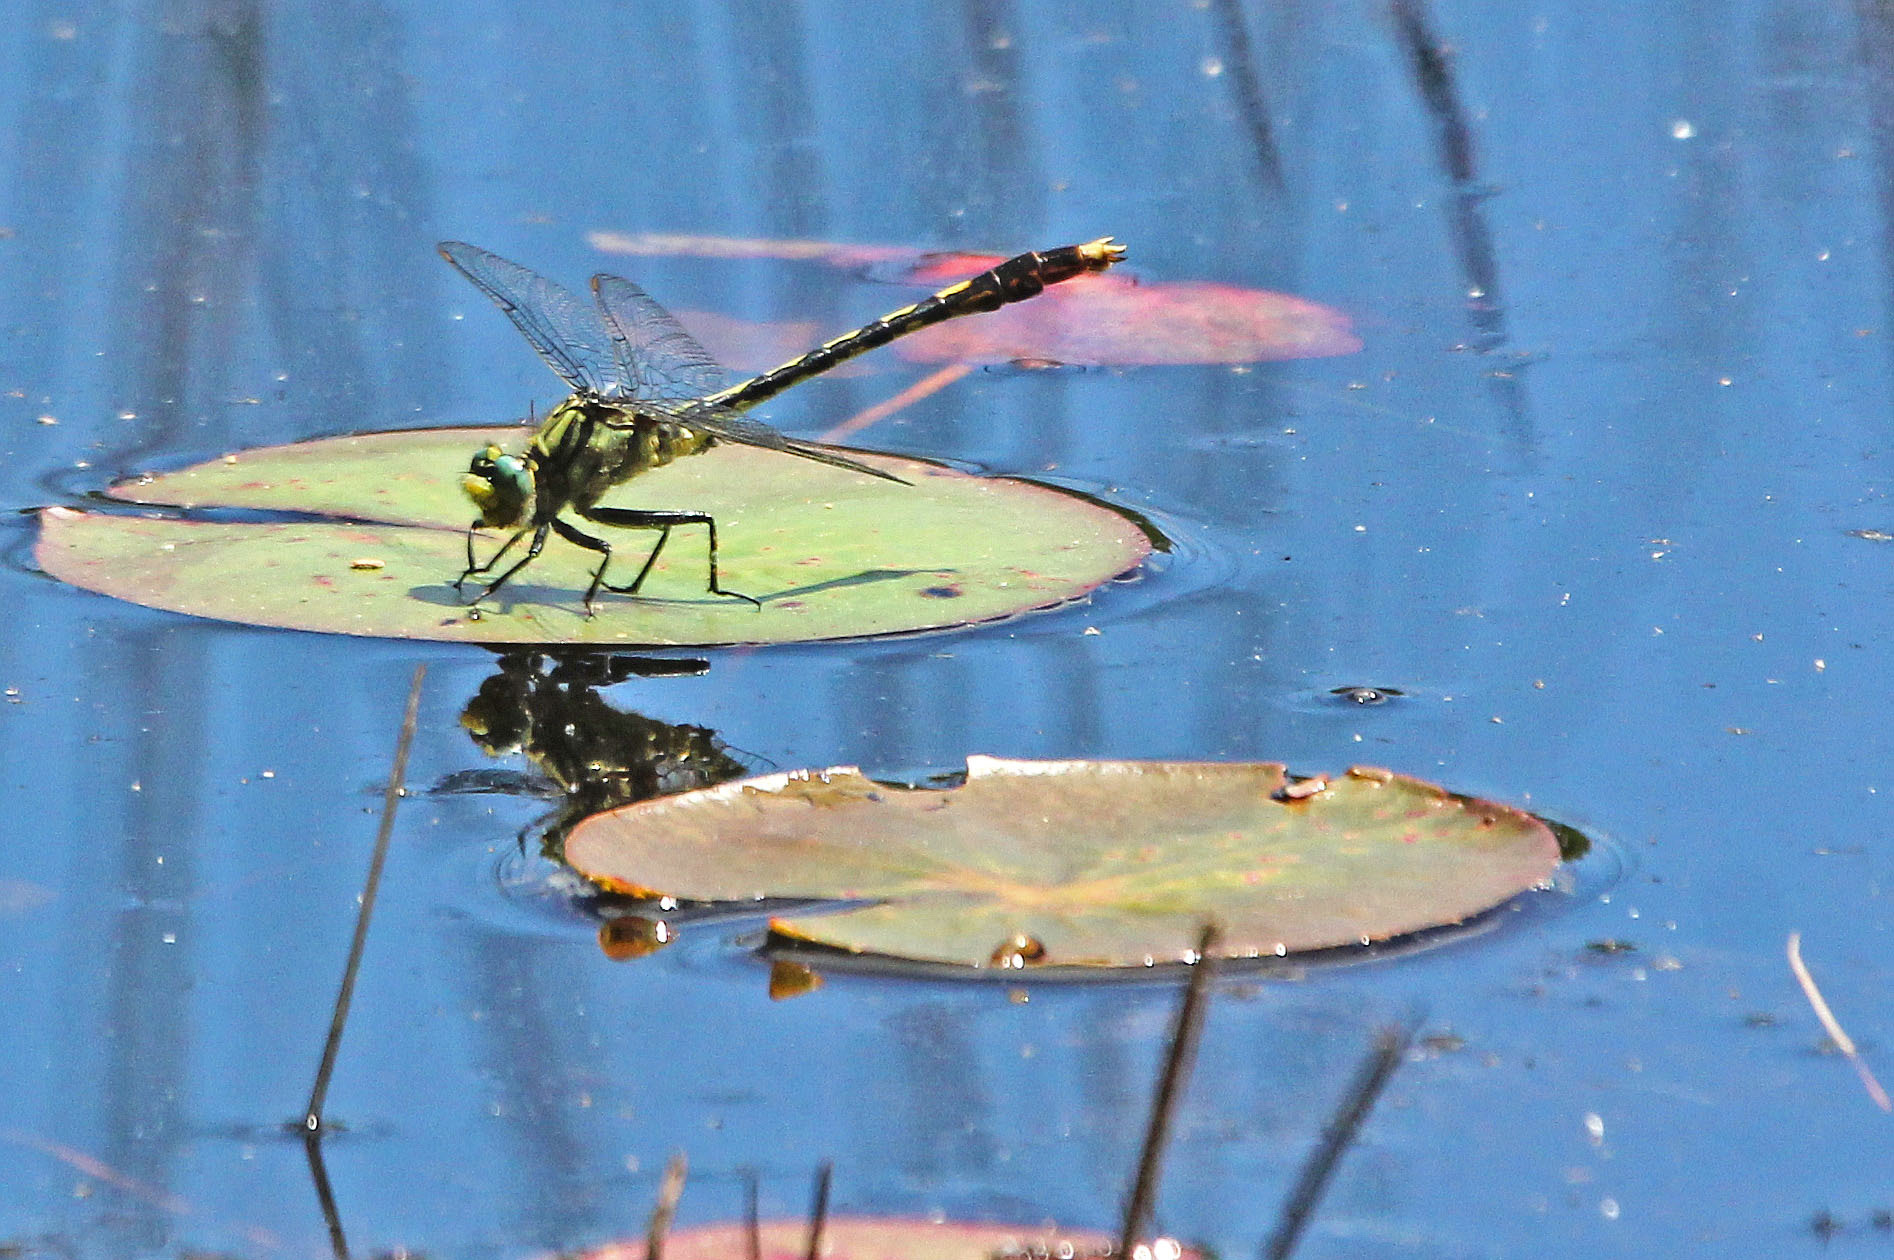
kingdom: Animalia
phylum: Arthropoda
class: Insecta
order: Odonata
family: Gomphidae
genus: Arigomphus
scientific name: Arigomphus villosipes
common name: Unicorn clubtail
